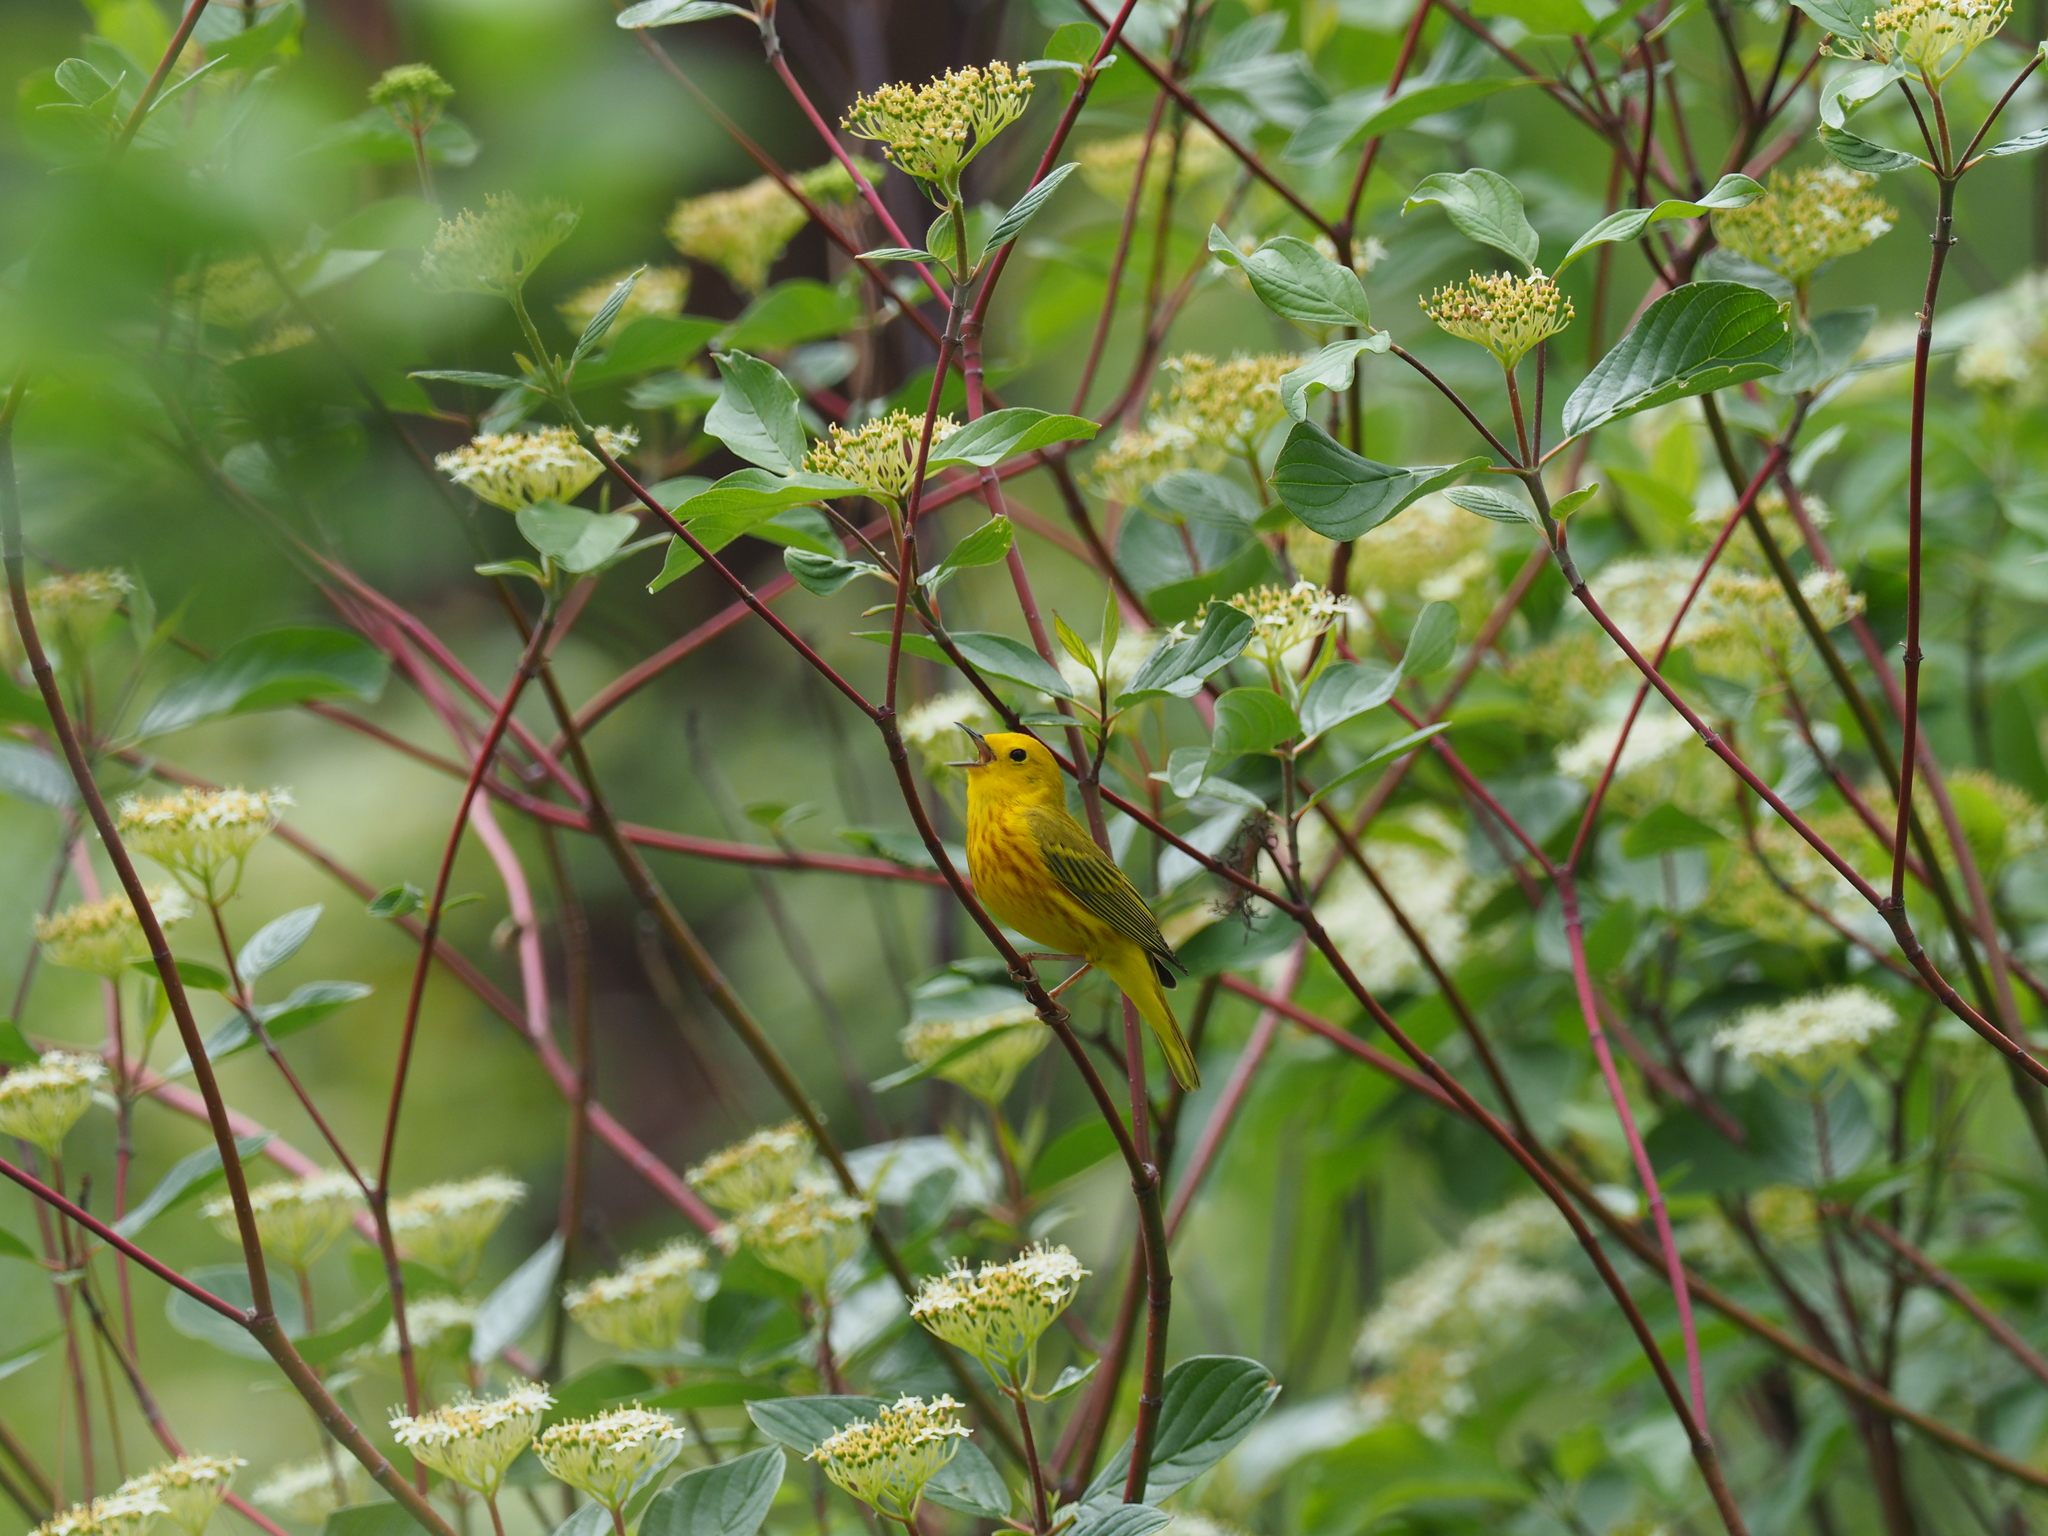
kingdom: Animalia
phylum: Chordata
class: Aves
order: Passeriformes
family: Parulidae
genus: Setophaga
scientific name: Setophaga petechia
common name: Yellow warbler
